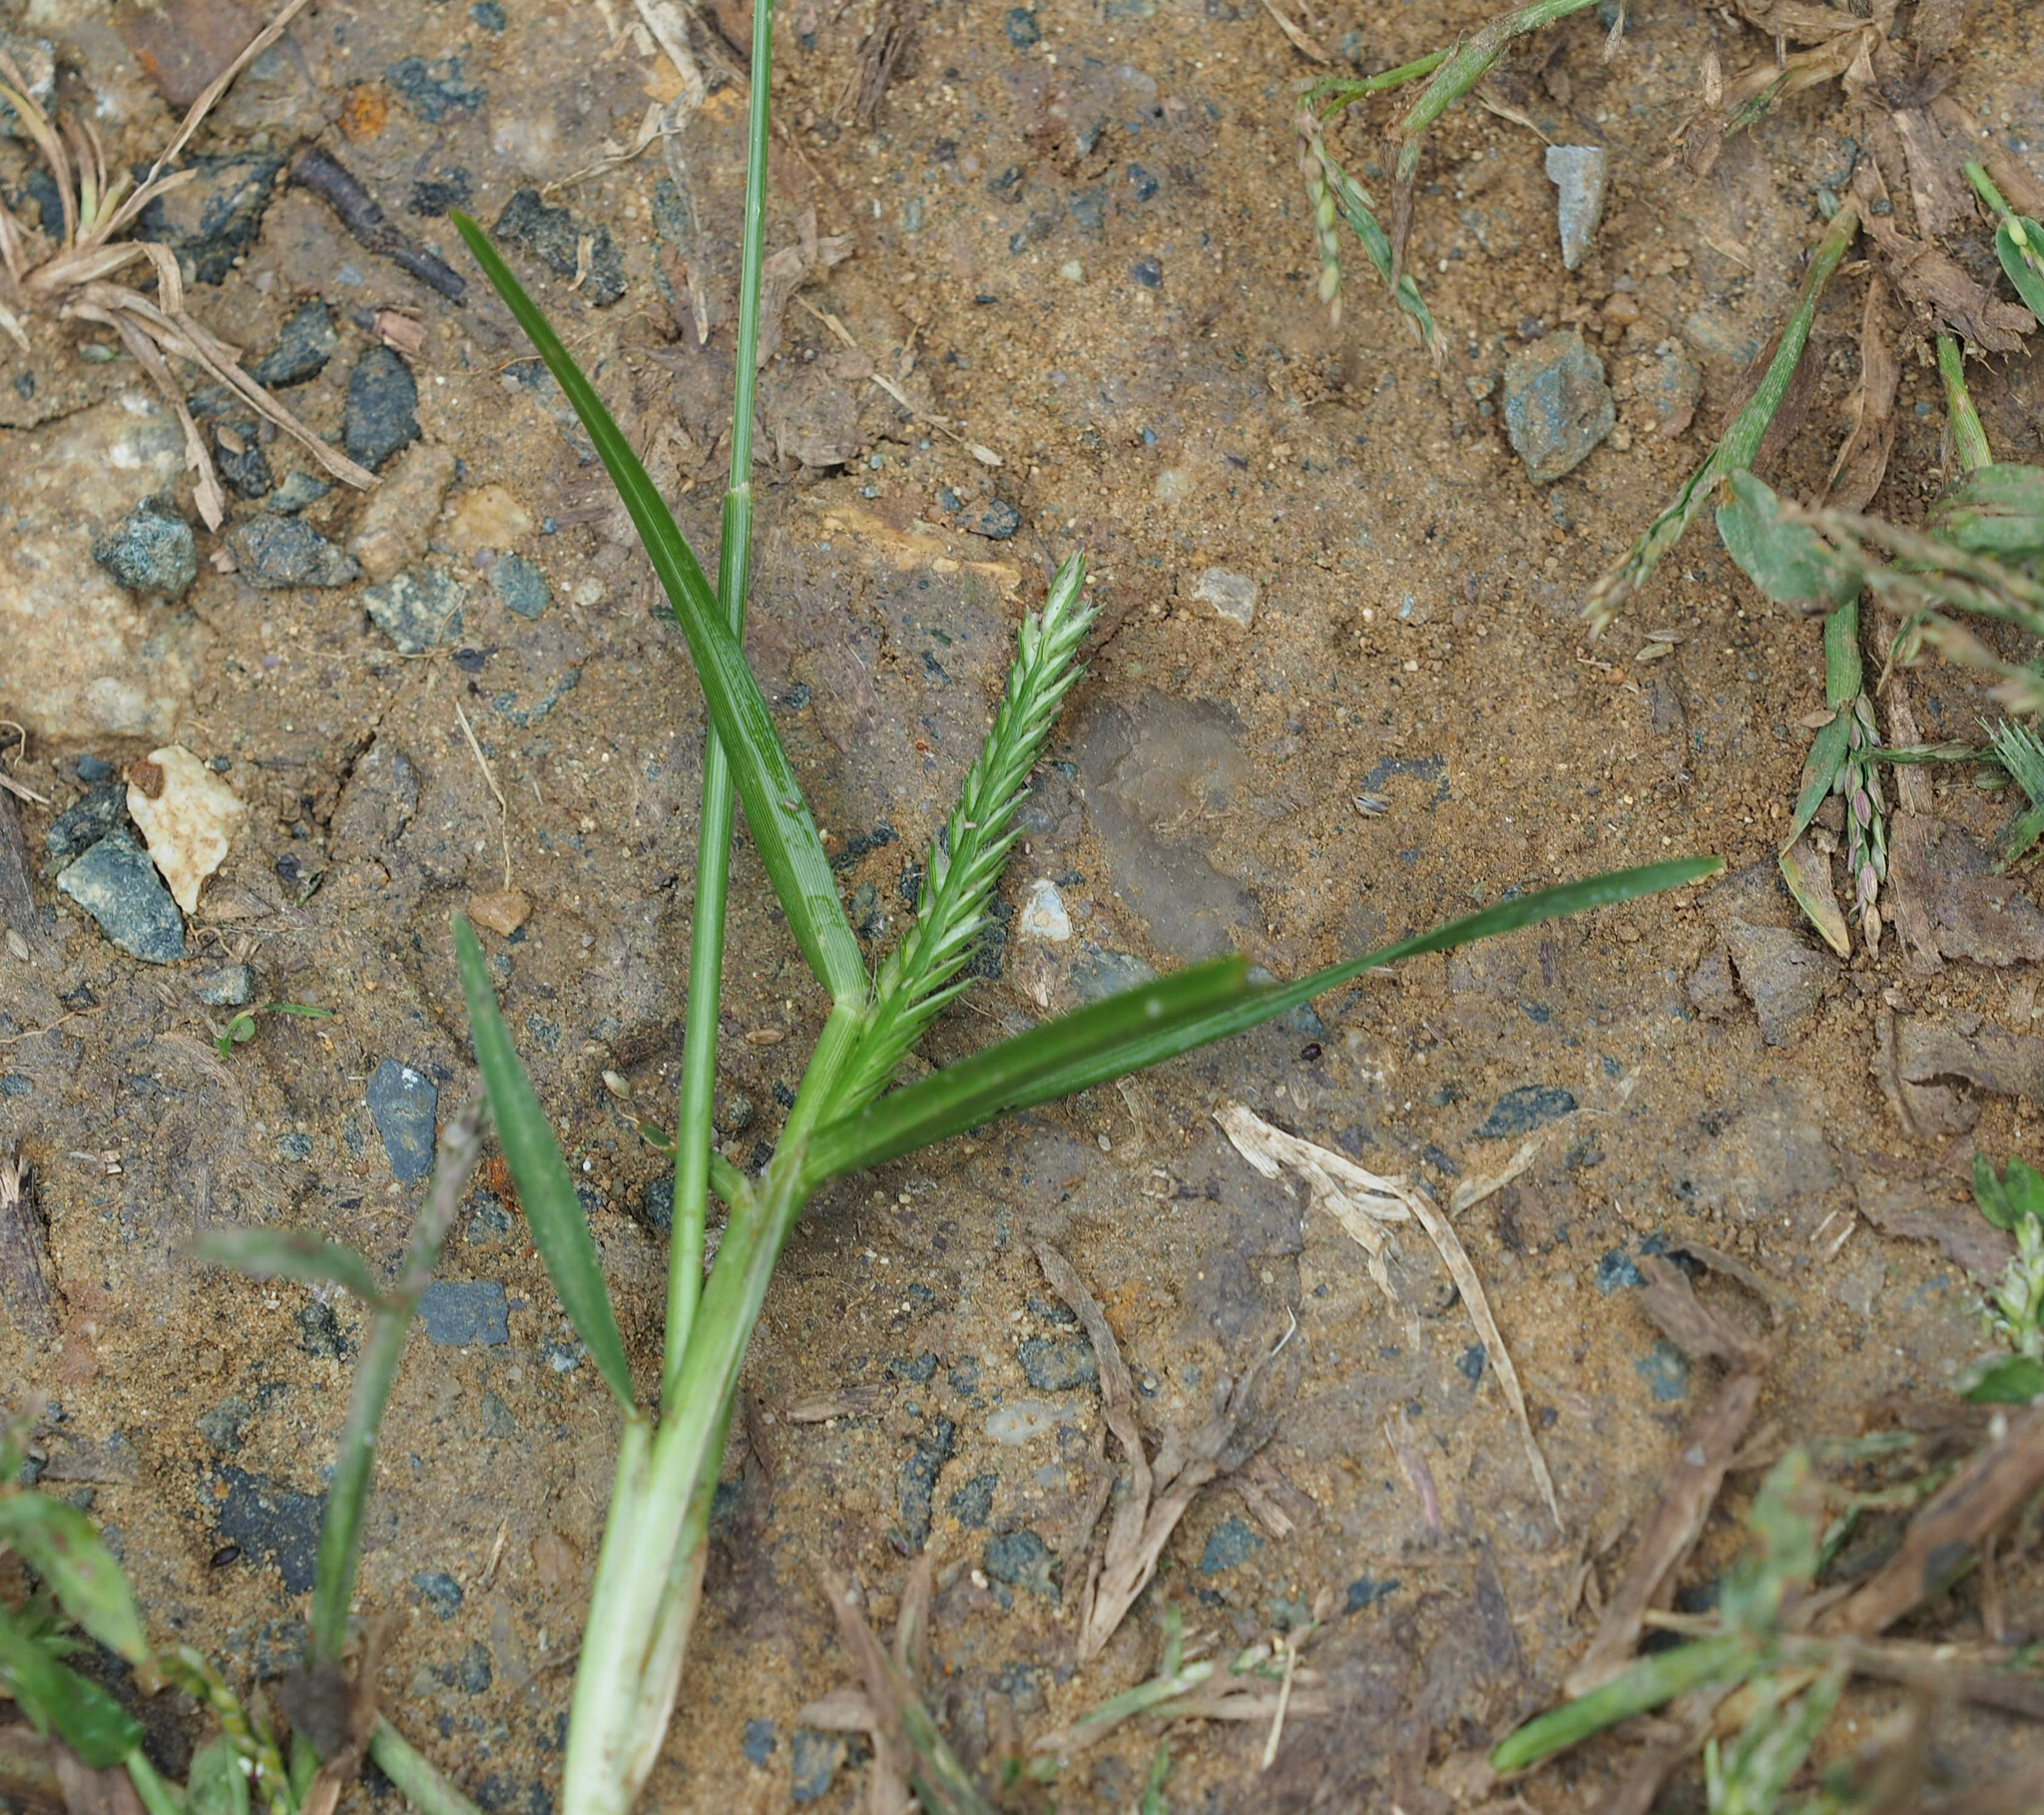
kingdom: Plantae
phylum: Tracheophyta
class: Liliopsida
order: Poales
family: Poaceae
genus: Eleusine
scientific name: Eleusine indica
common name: Yard-grass
